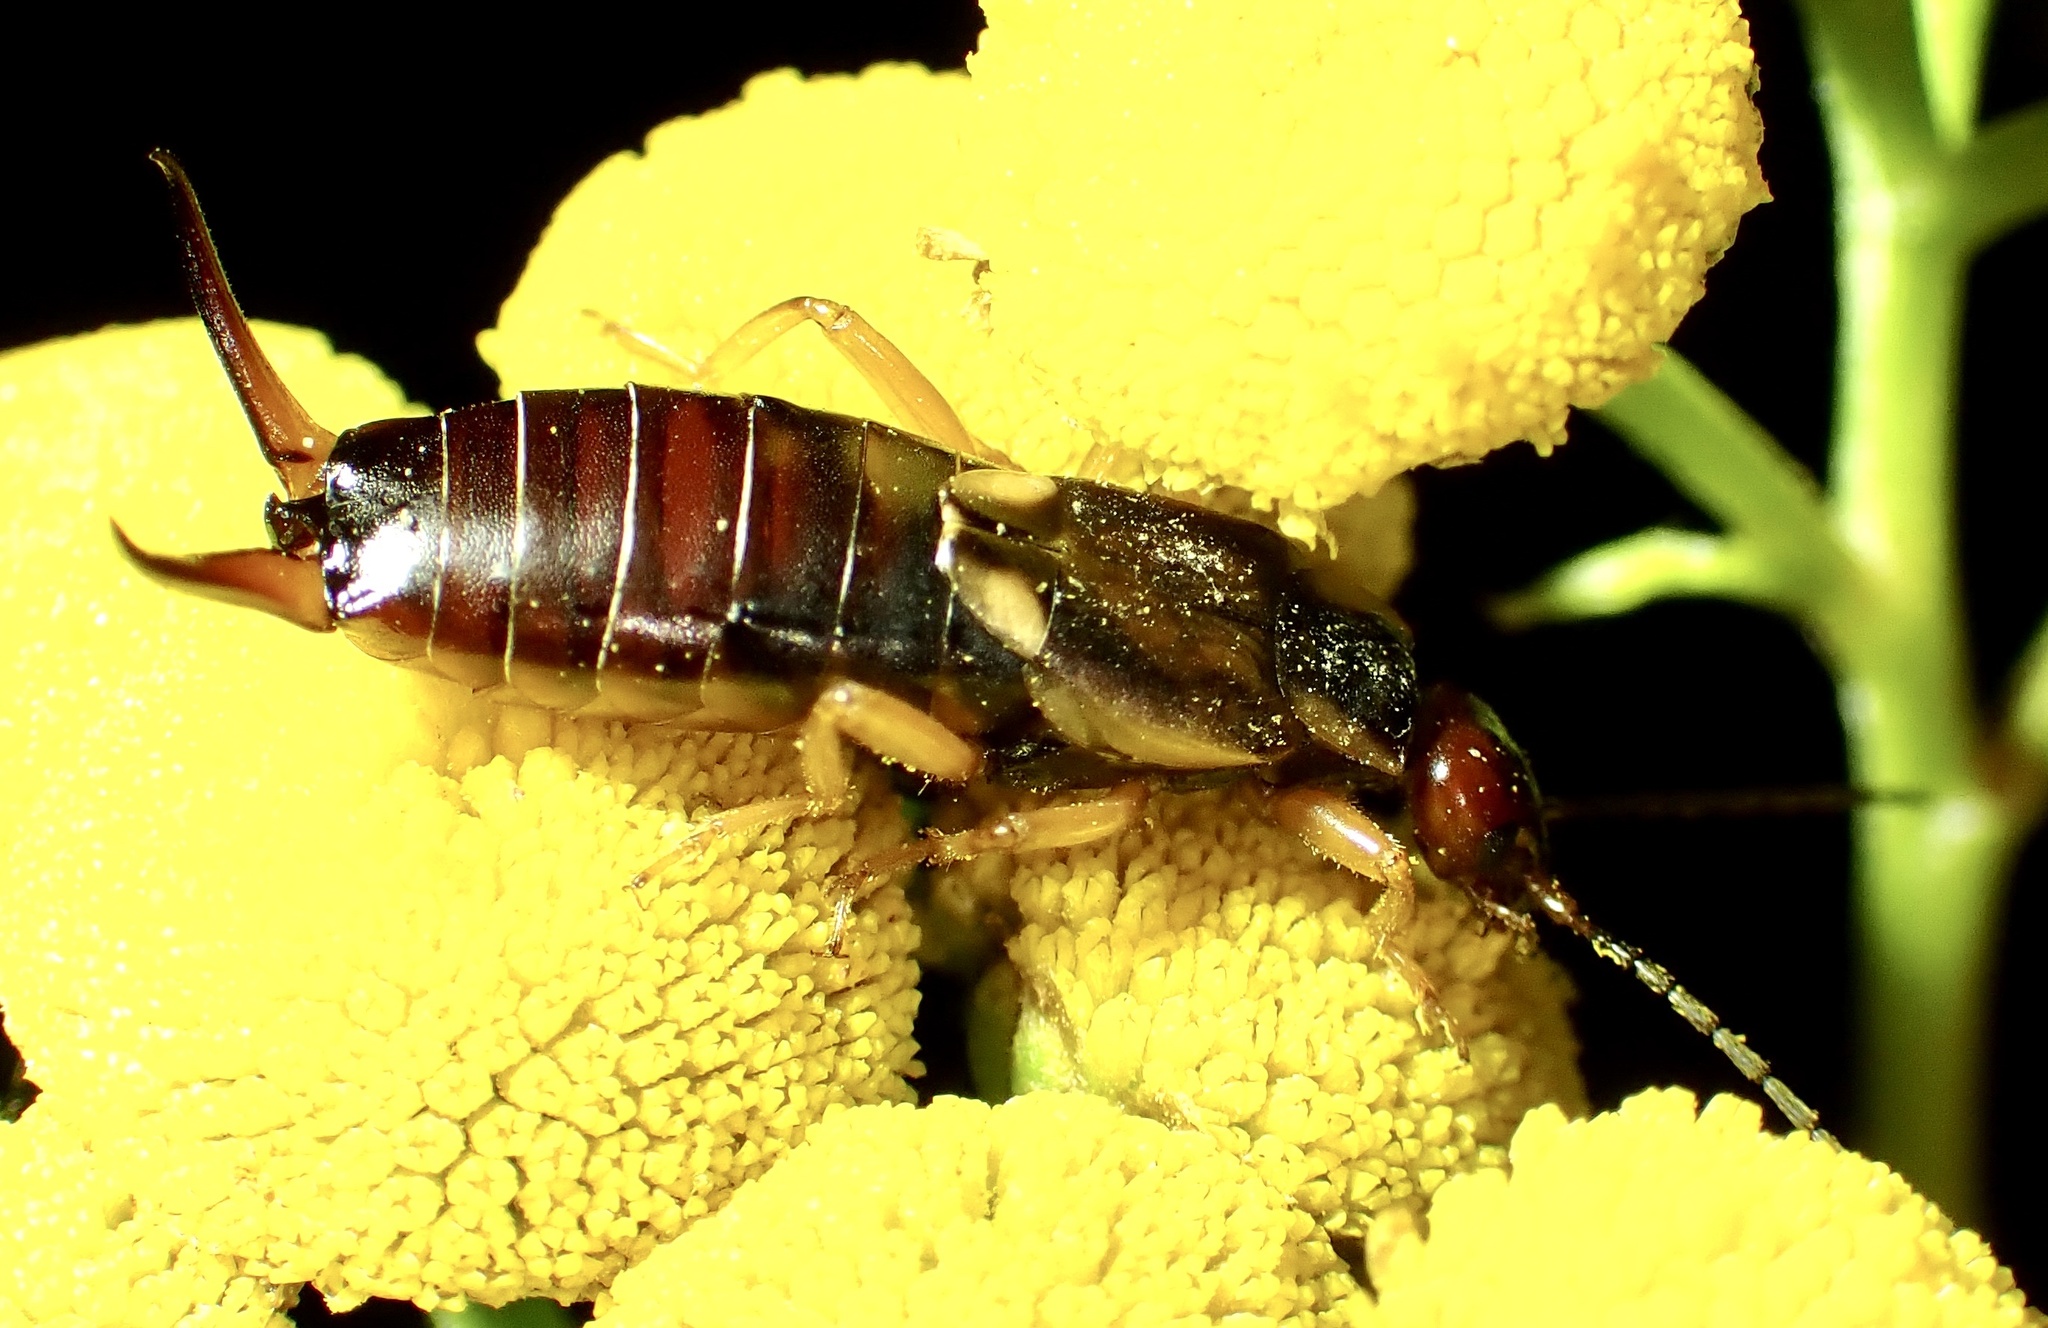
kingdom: Animalia
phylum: Arthropoda
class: Insecta
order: Dermaptera
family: Forficulidae
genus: Forficula
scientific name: Forficula
